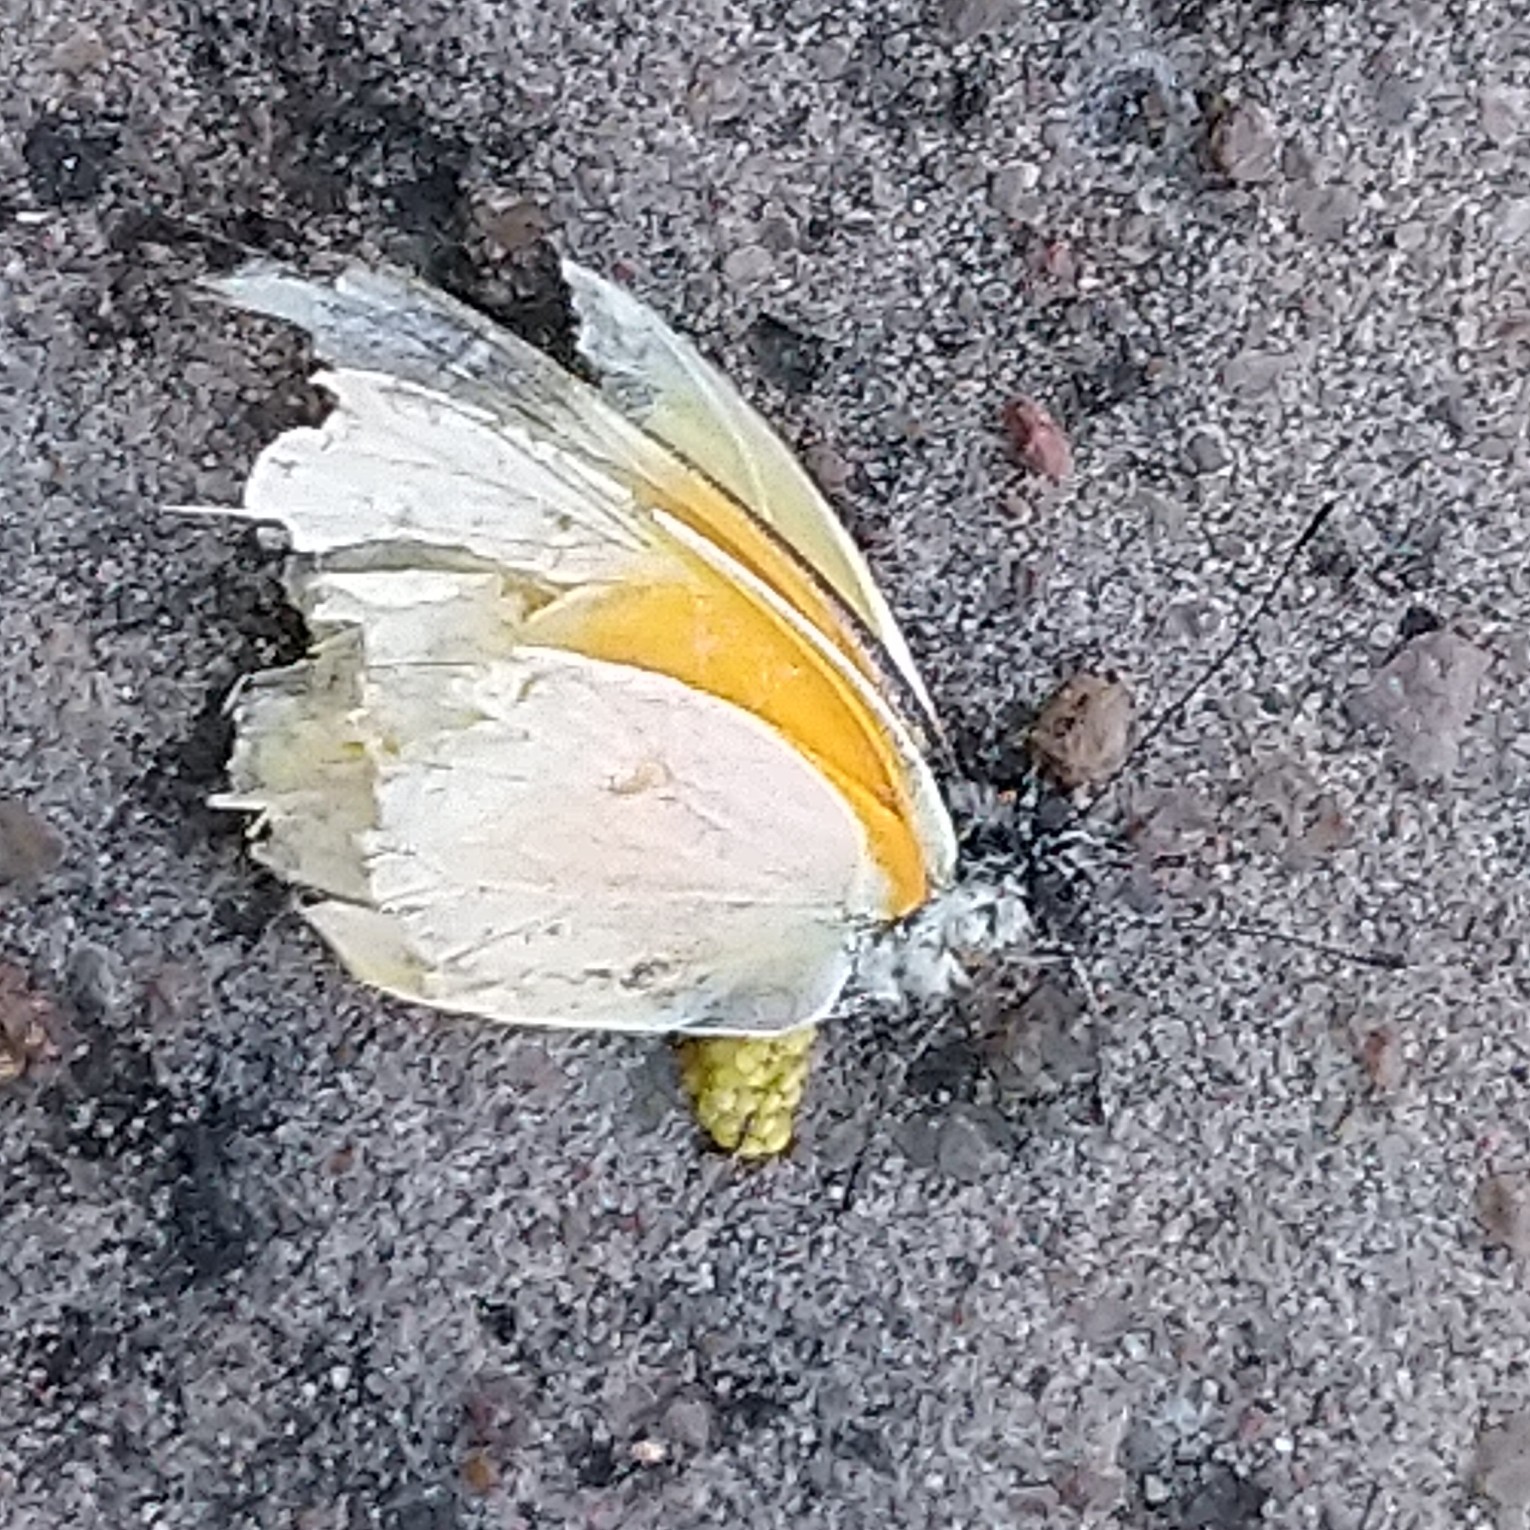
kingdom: Animalia
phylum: Arthropoda
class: Insecta
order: Lepidoptera
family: Pieridae
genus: Mylothris
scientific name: Mylothris rueppellii
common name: Twin dotted border
